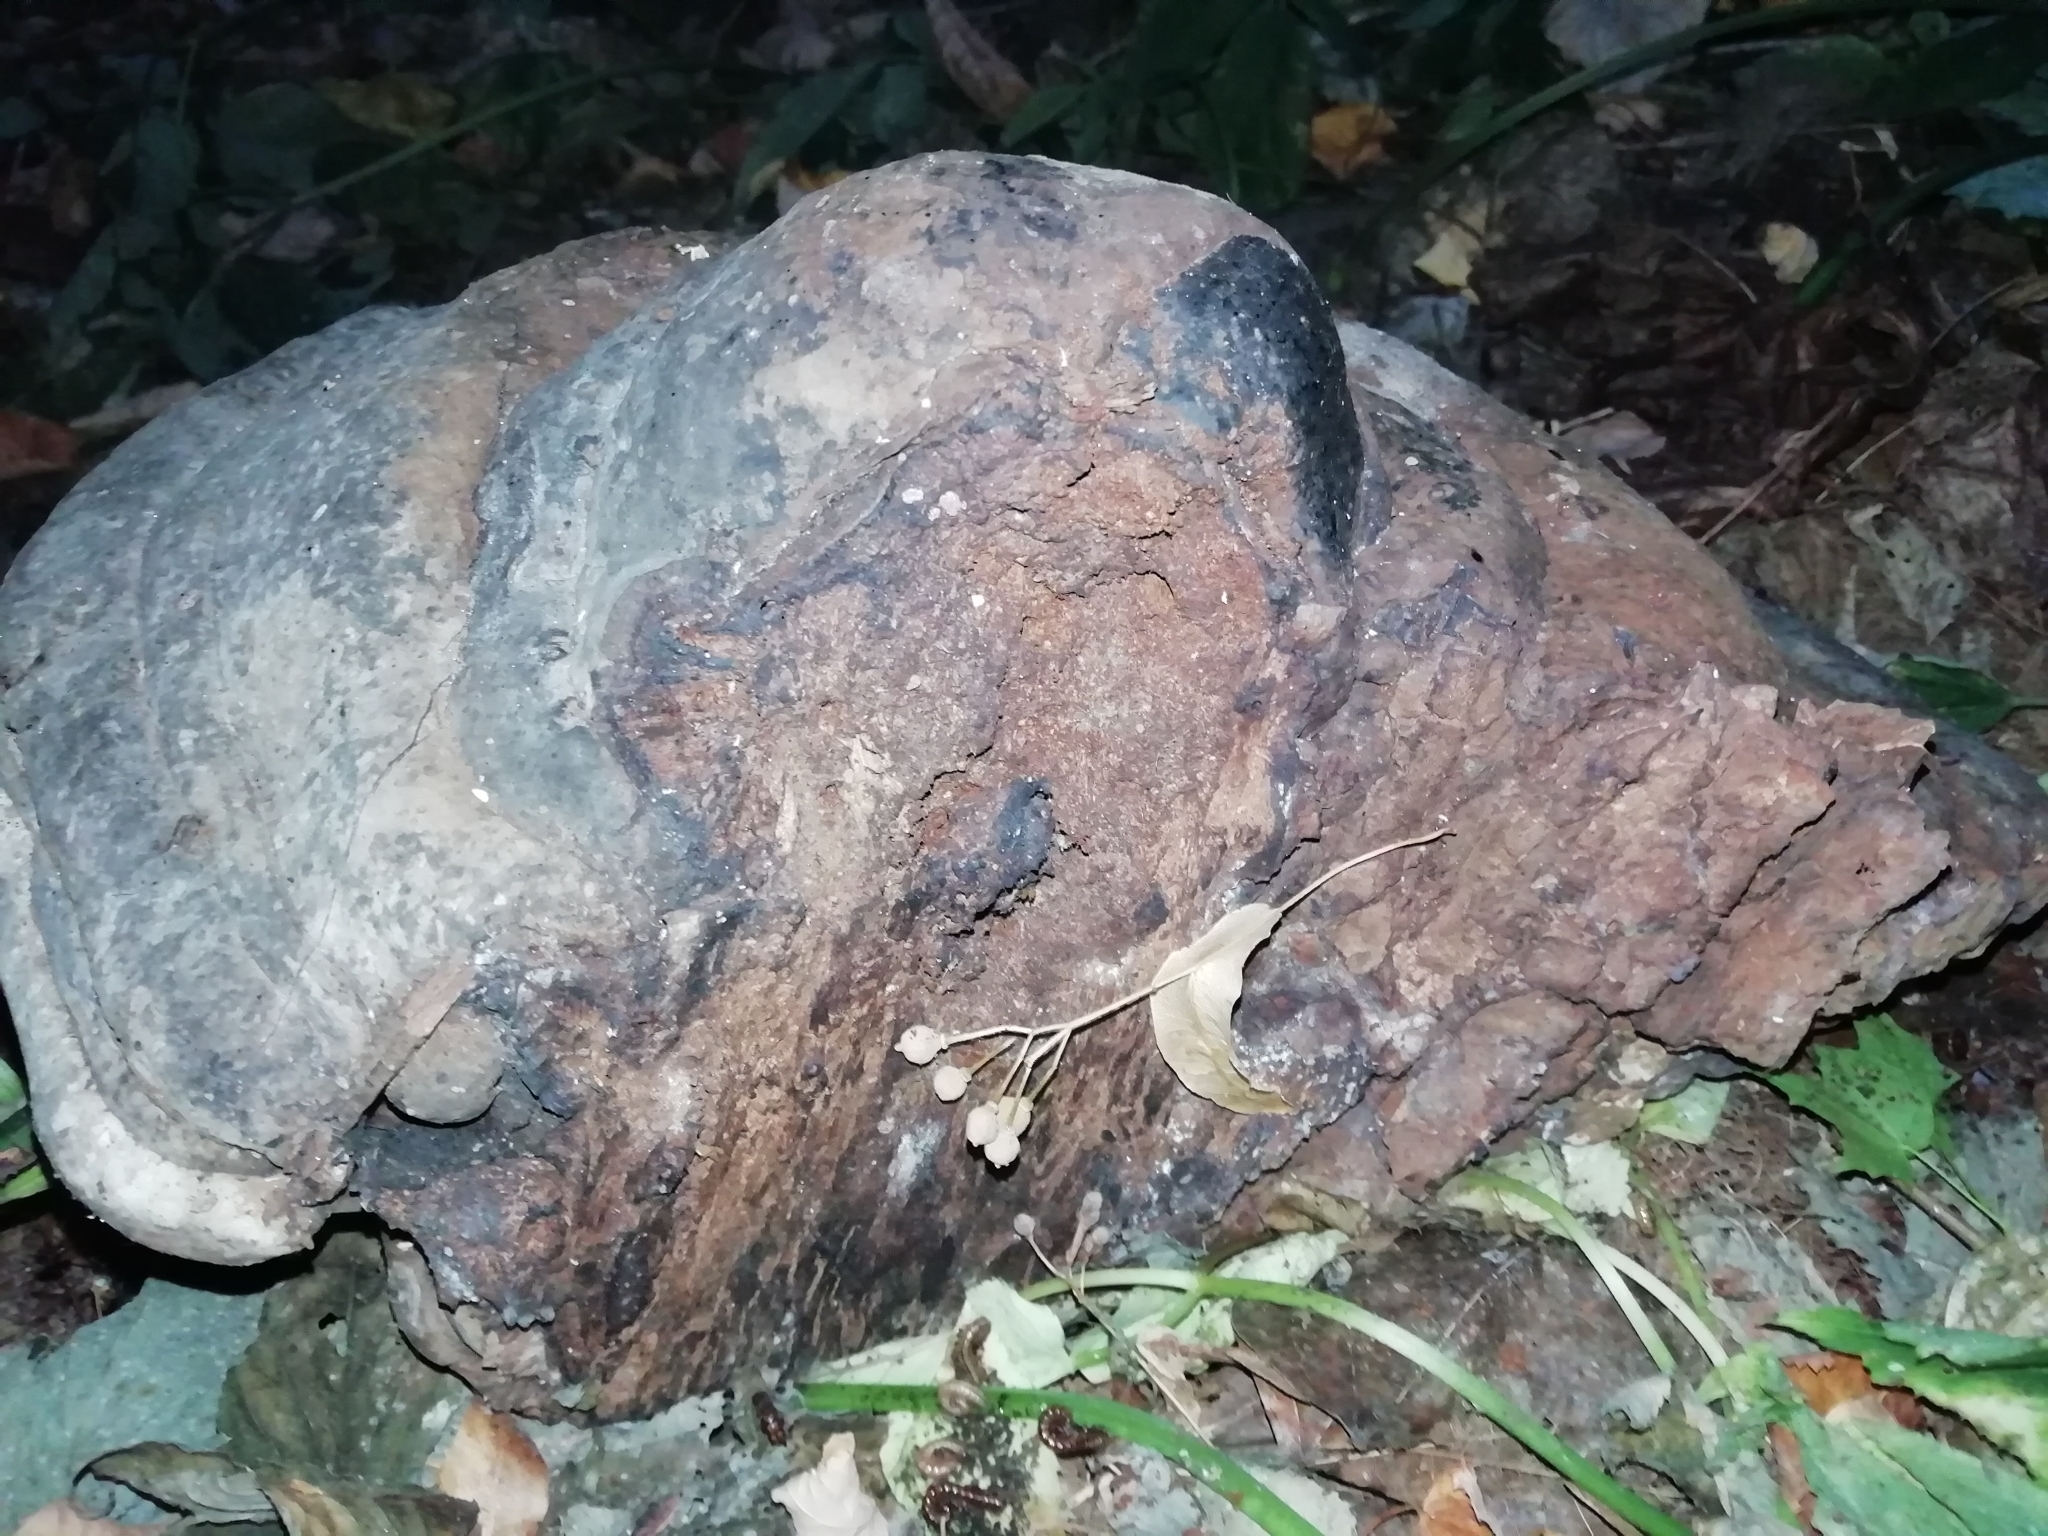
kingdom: Fungi
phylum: Basidiomycota
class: Agaricomycetes
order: Polyporales
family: Fomitopsidaceae
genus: Fomitopsis
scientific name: Fomitopsis pinicola
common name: Red-belted bracket
